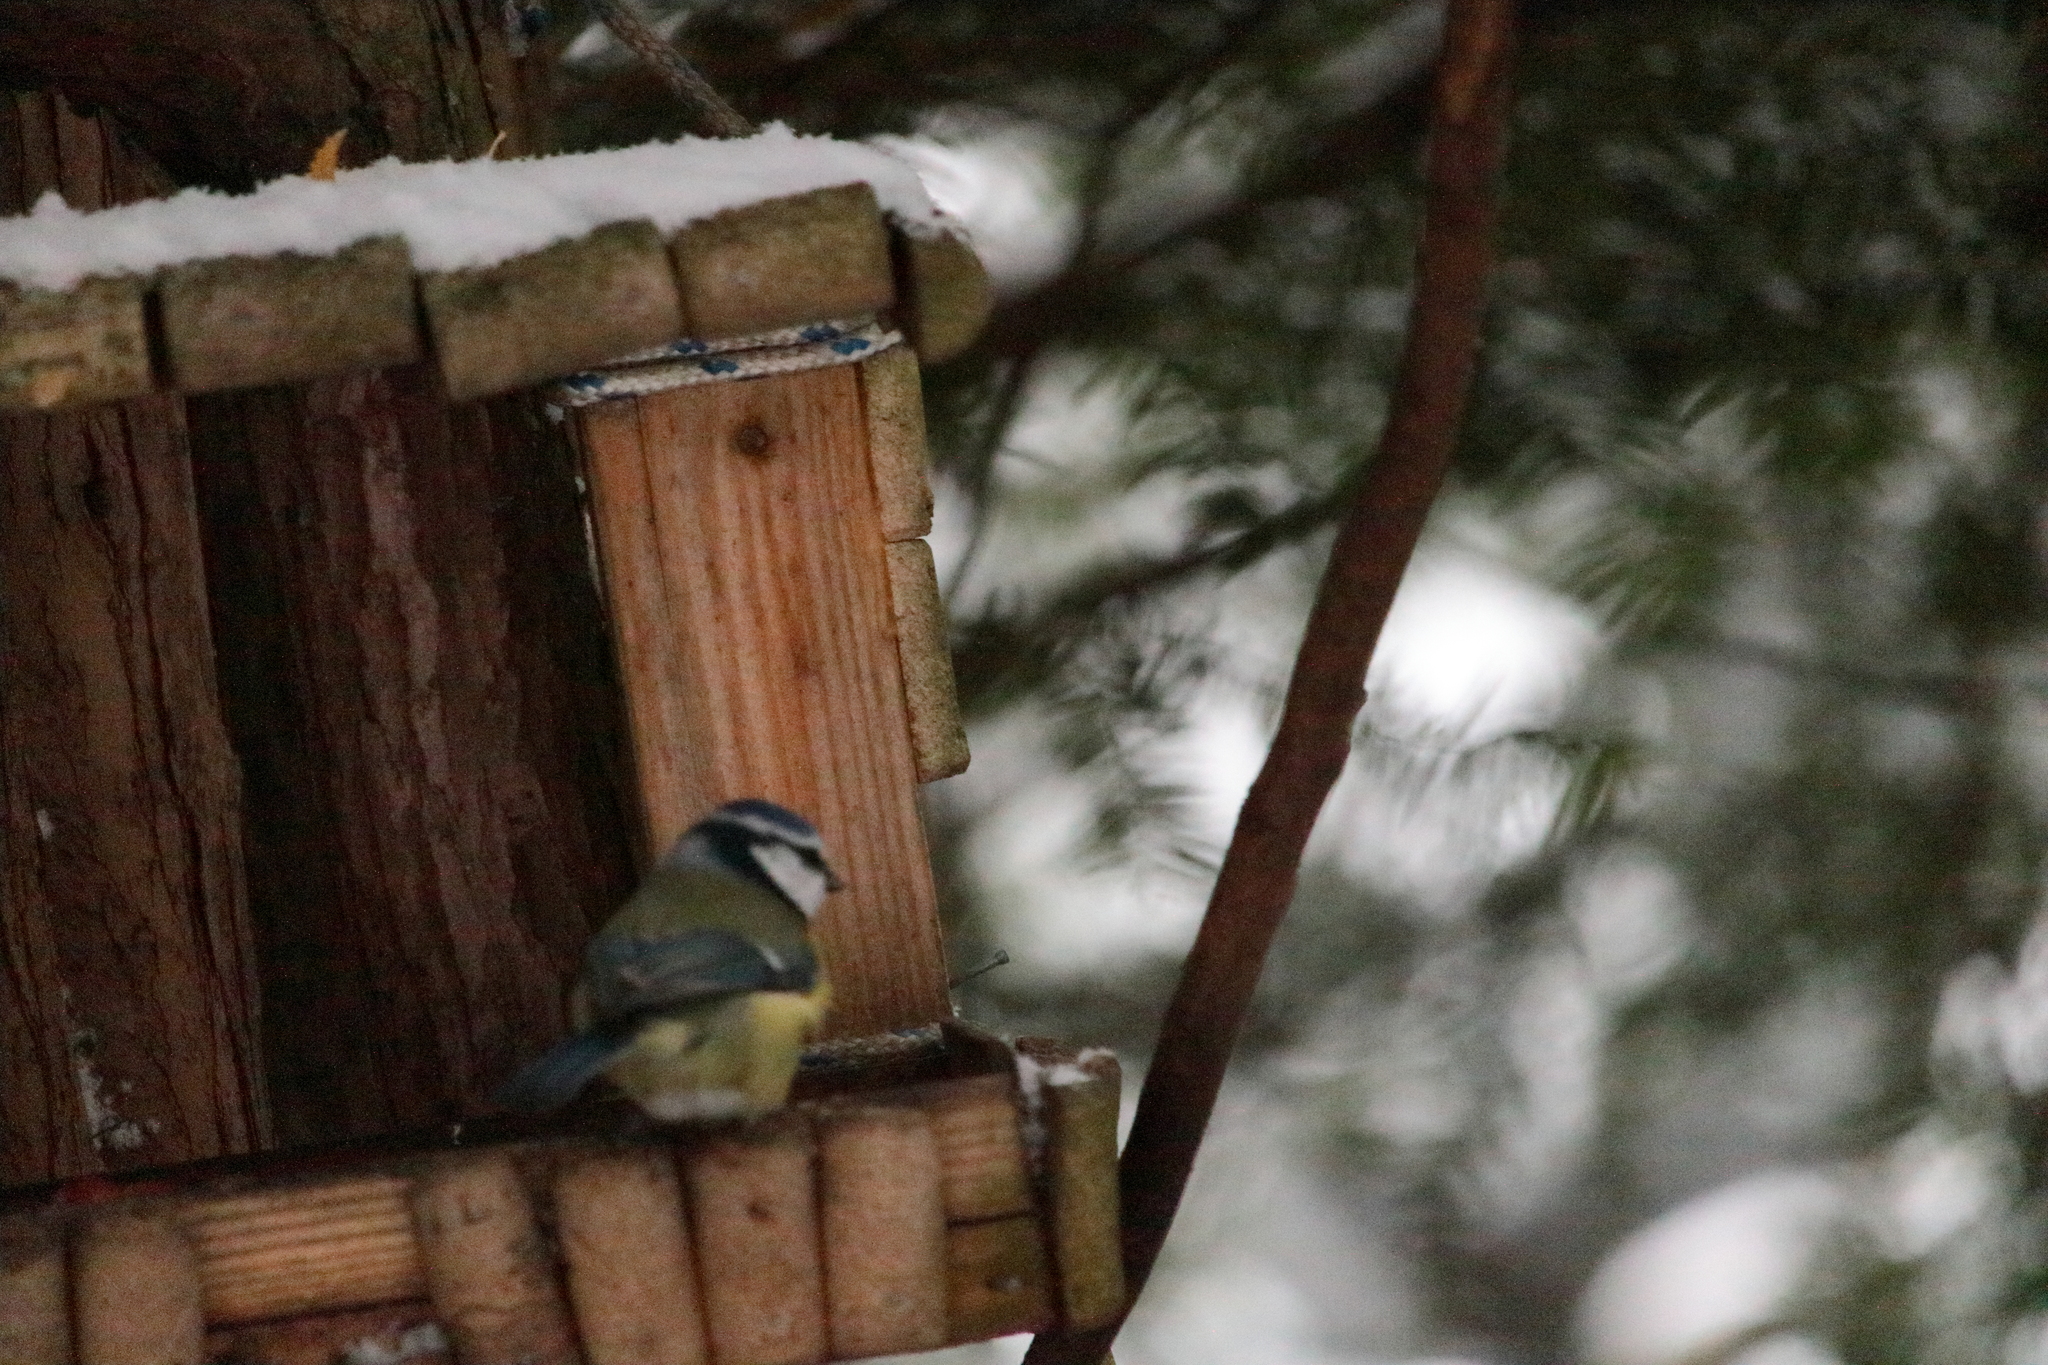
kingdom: Animalia
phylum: Chordata
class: Aves
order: Passeriformes
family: Paridae
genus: Cyanistes
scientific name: Cyanistes caeruleus
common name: Eurasian blue tit
